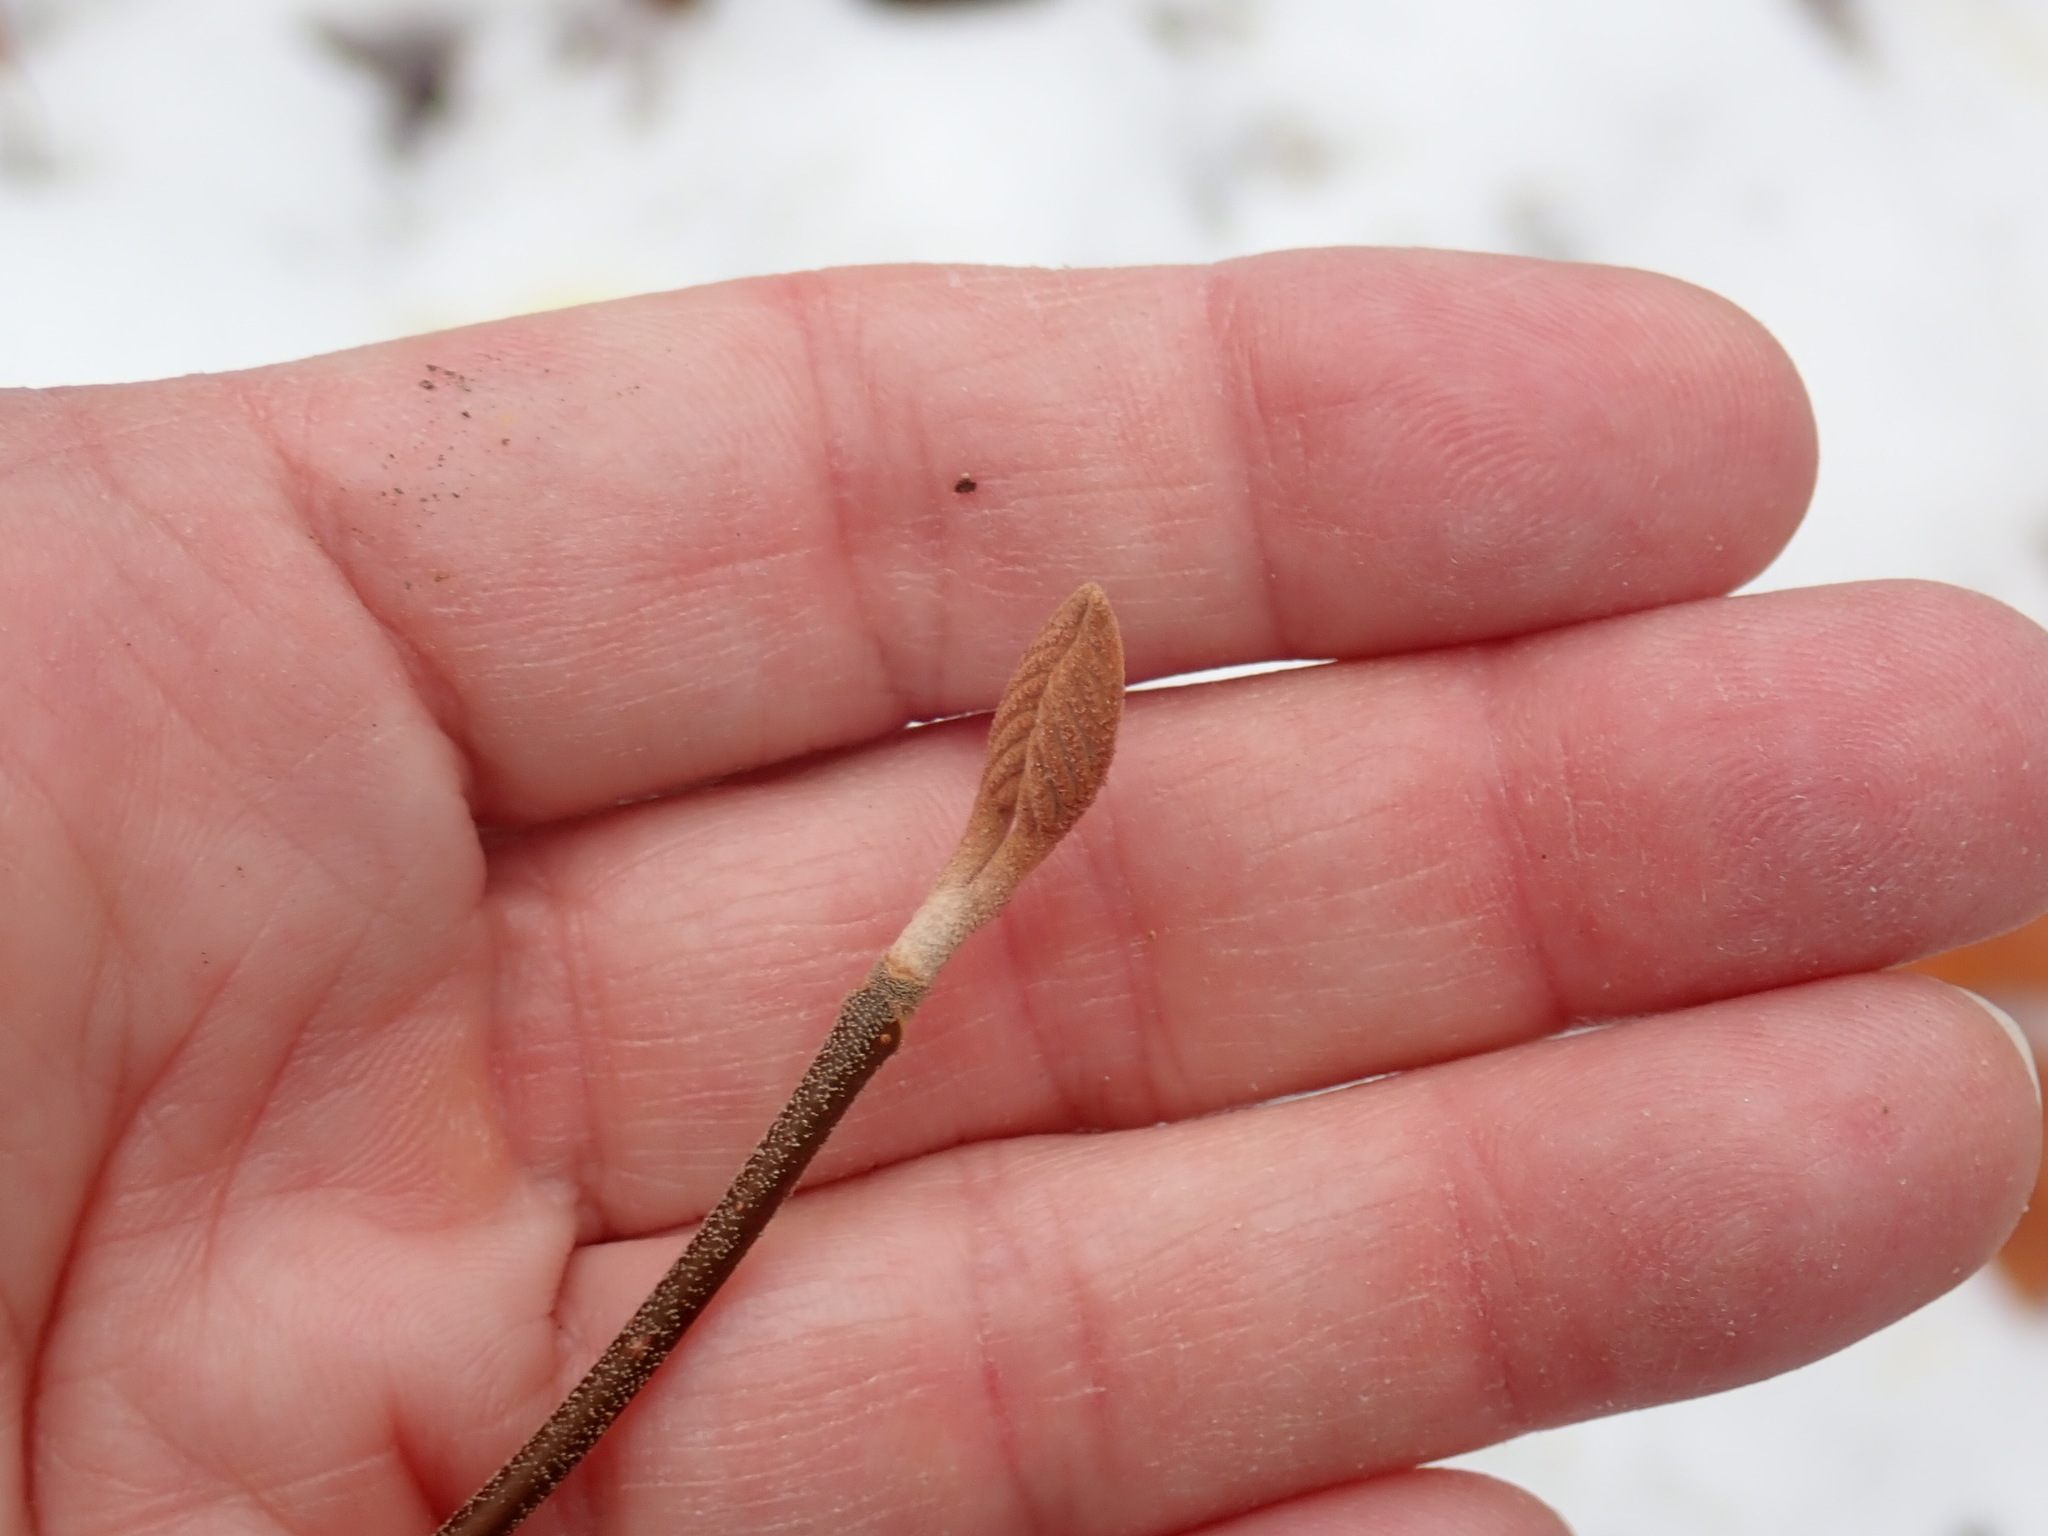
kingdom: Plantae
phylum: Tracheophyta
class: Magnoliopsida
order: Dipsacales
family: Viburnaceae
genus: Viburnum
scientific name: Viburnum lantanoides
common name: Hobblebush
